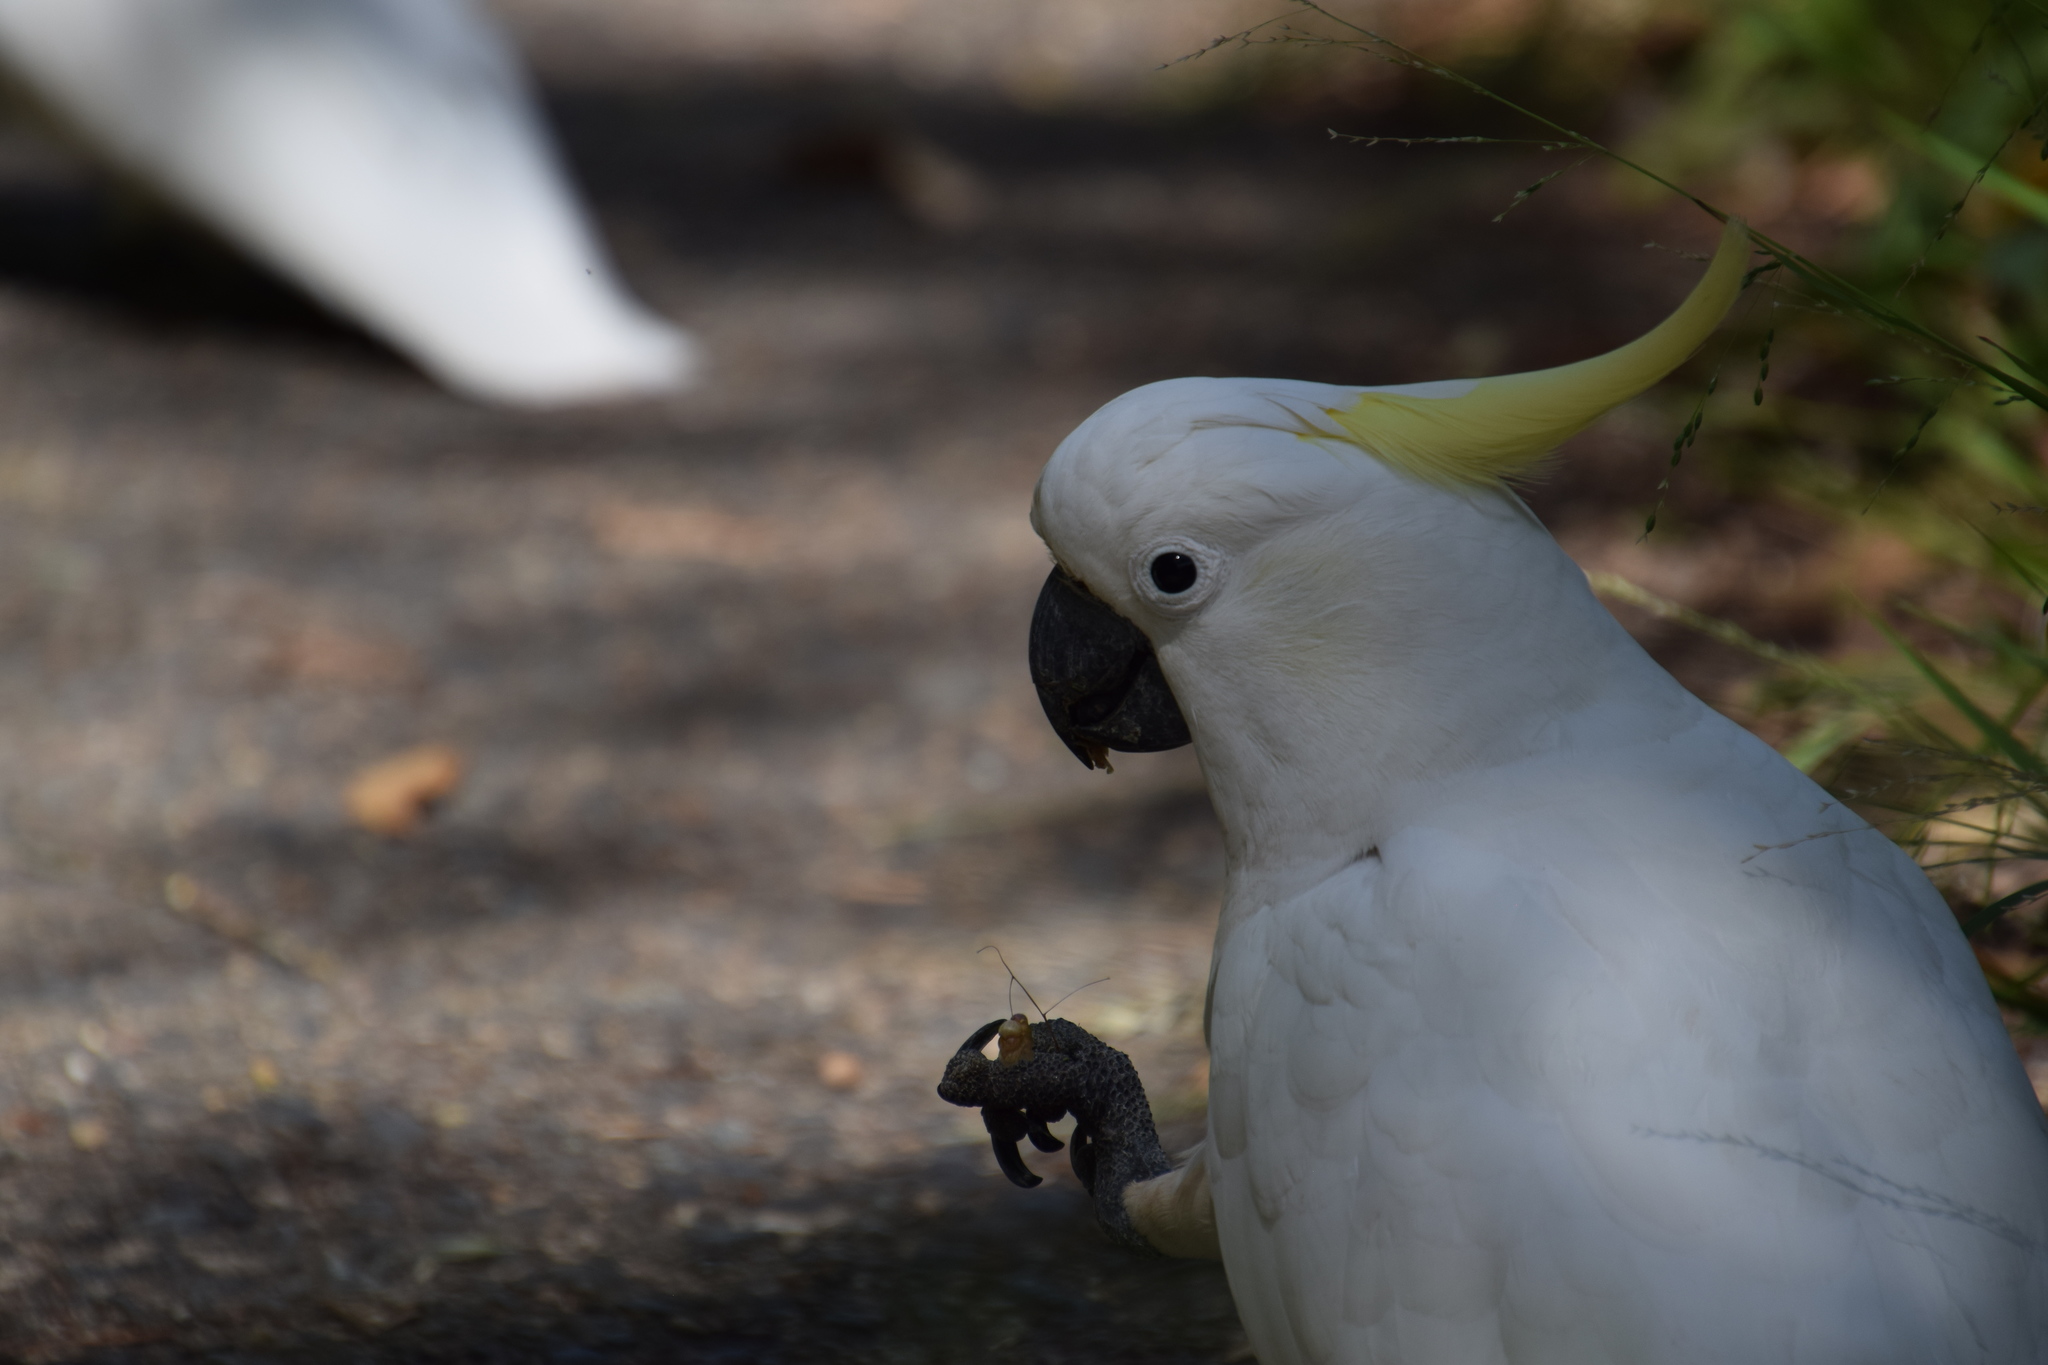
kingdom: Animalia
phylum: Chordata
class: Aves
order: Psittaciformes
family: Psittacidae
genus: Cacatua
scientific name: Cacatua galerita
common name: Sulphur-crested cockatoo
